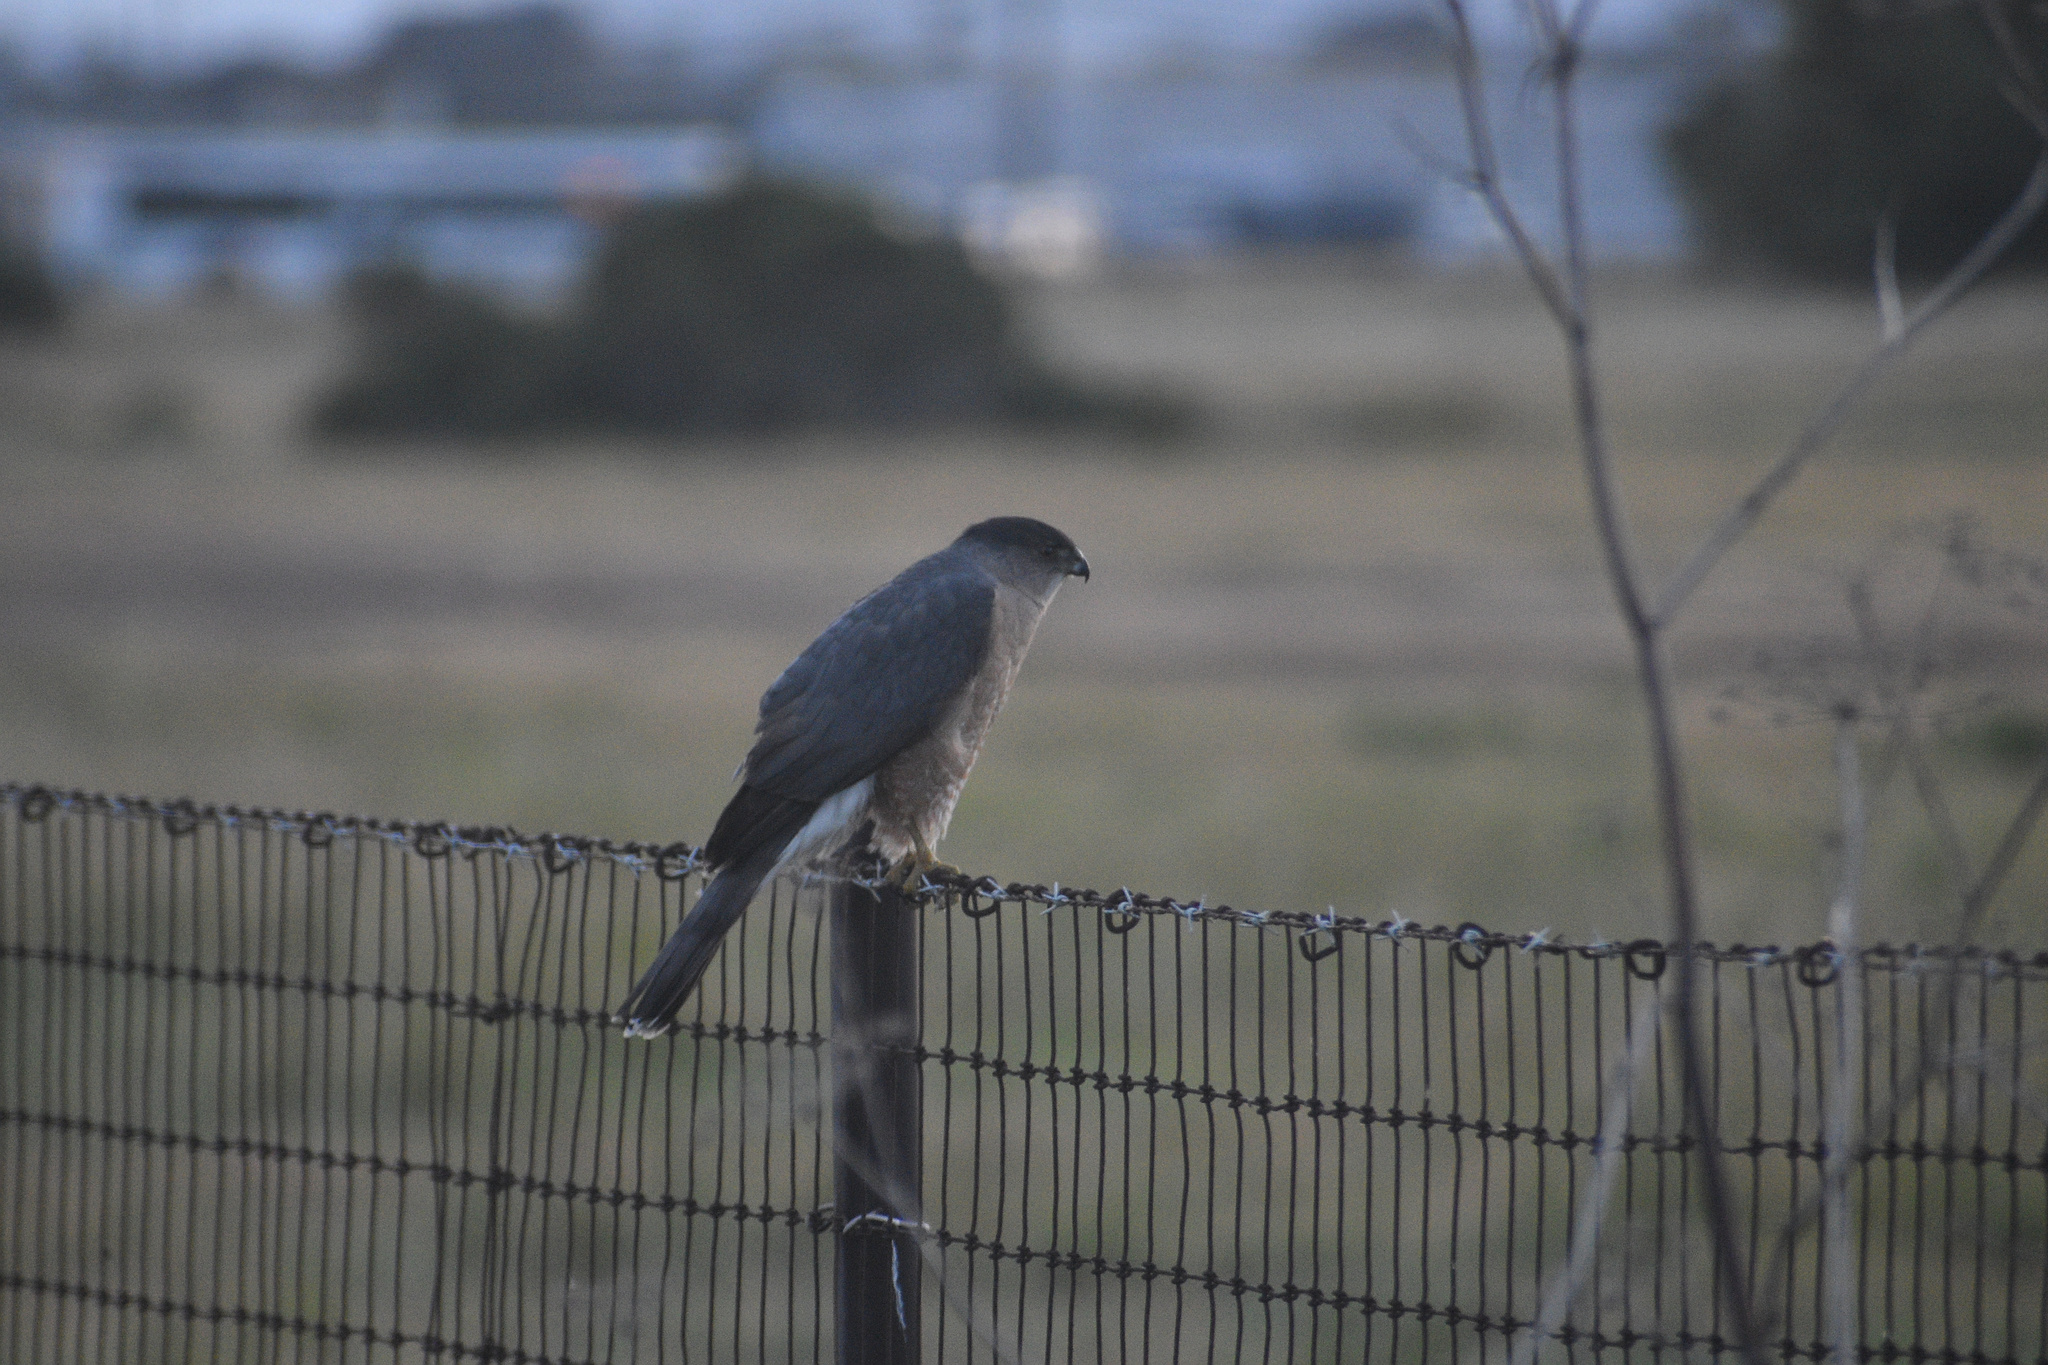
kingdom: Animalia
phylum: Chordata
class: Aves
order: Accipitriformes
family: Accipitridae
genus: Accipiter
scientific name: Accipiter cooperii
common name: Cooper's hawk
